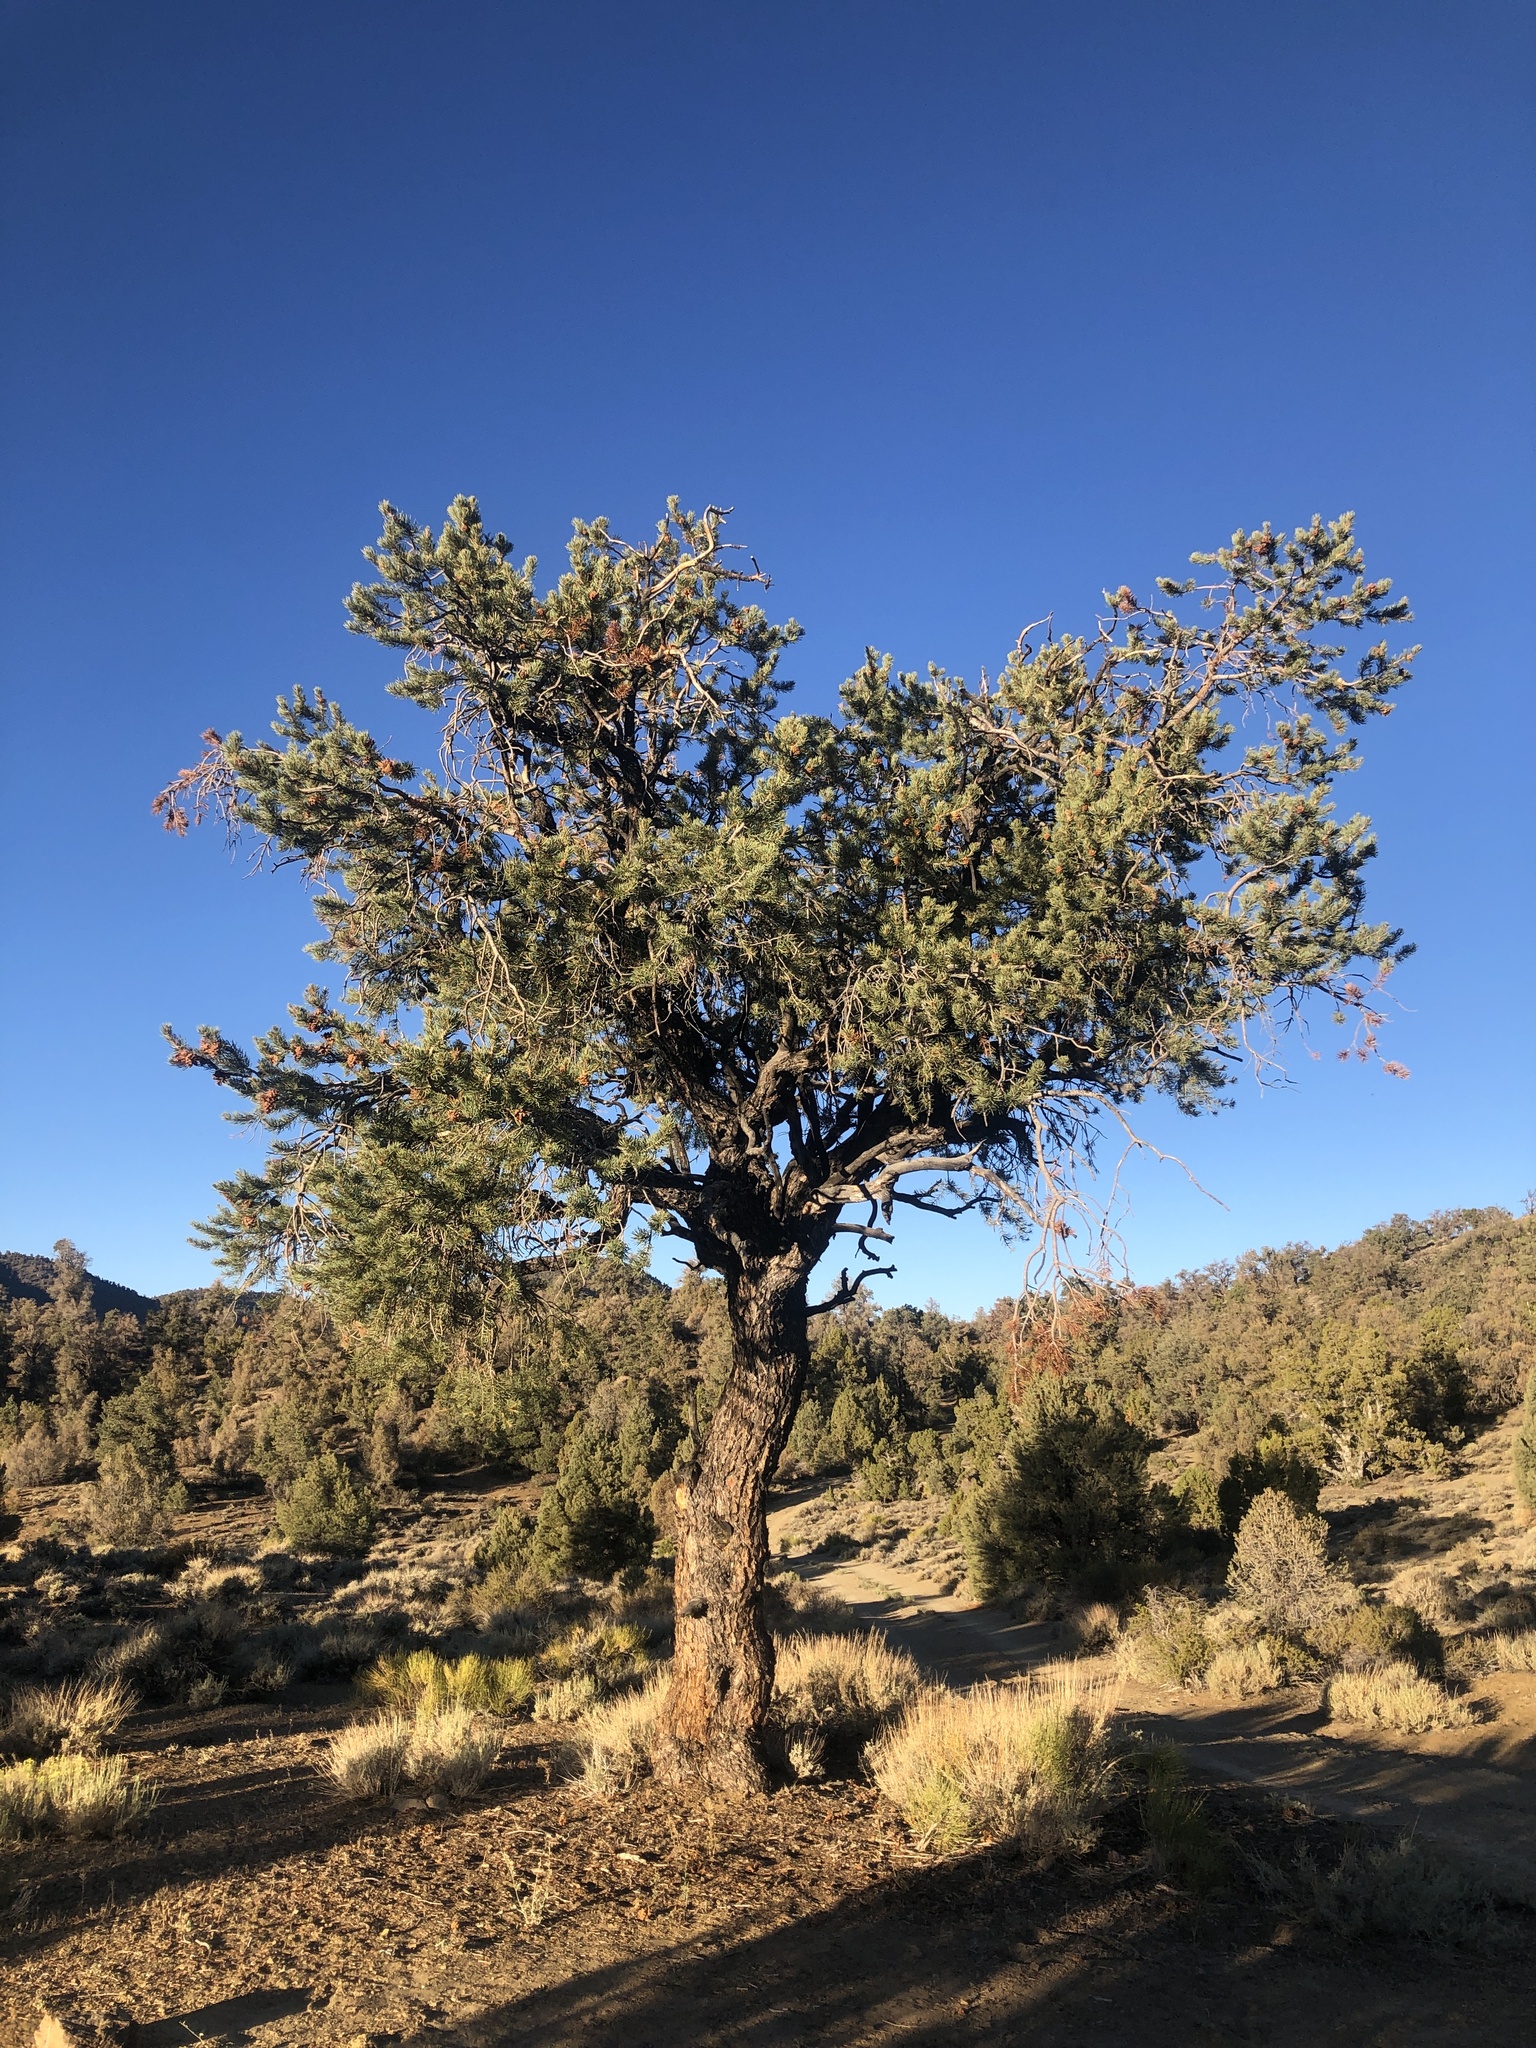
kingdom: Plantae
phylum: Tracheophyta
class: Pinopsida
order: Pinales
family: Pinaceae
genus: Pinus
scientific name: Pinus monophylla
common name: One-leaved nut pine
